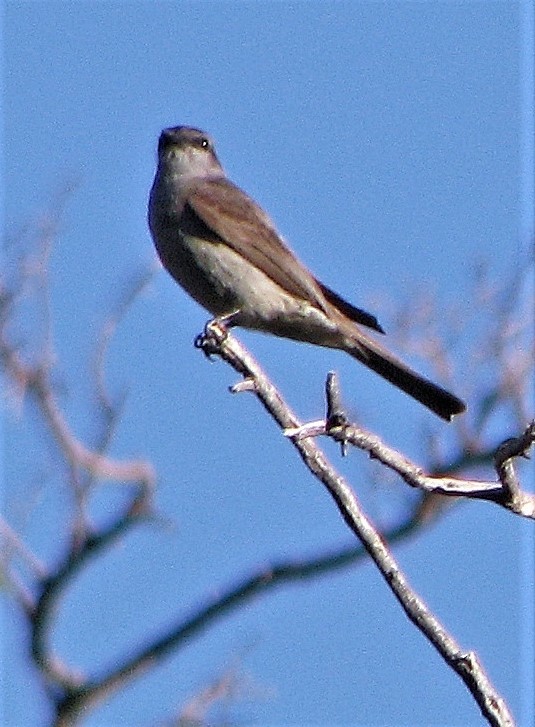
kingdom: Animalia
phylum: Chordata
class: Aves
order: Passeriformes
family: Tyrannidae
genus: Empidonomus
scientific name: Empidonomus aurantioatrocristatus
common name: Crowned slaty flycatcher
